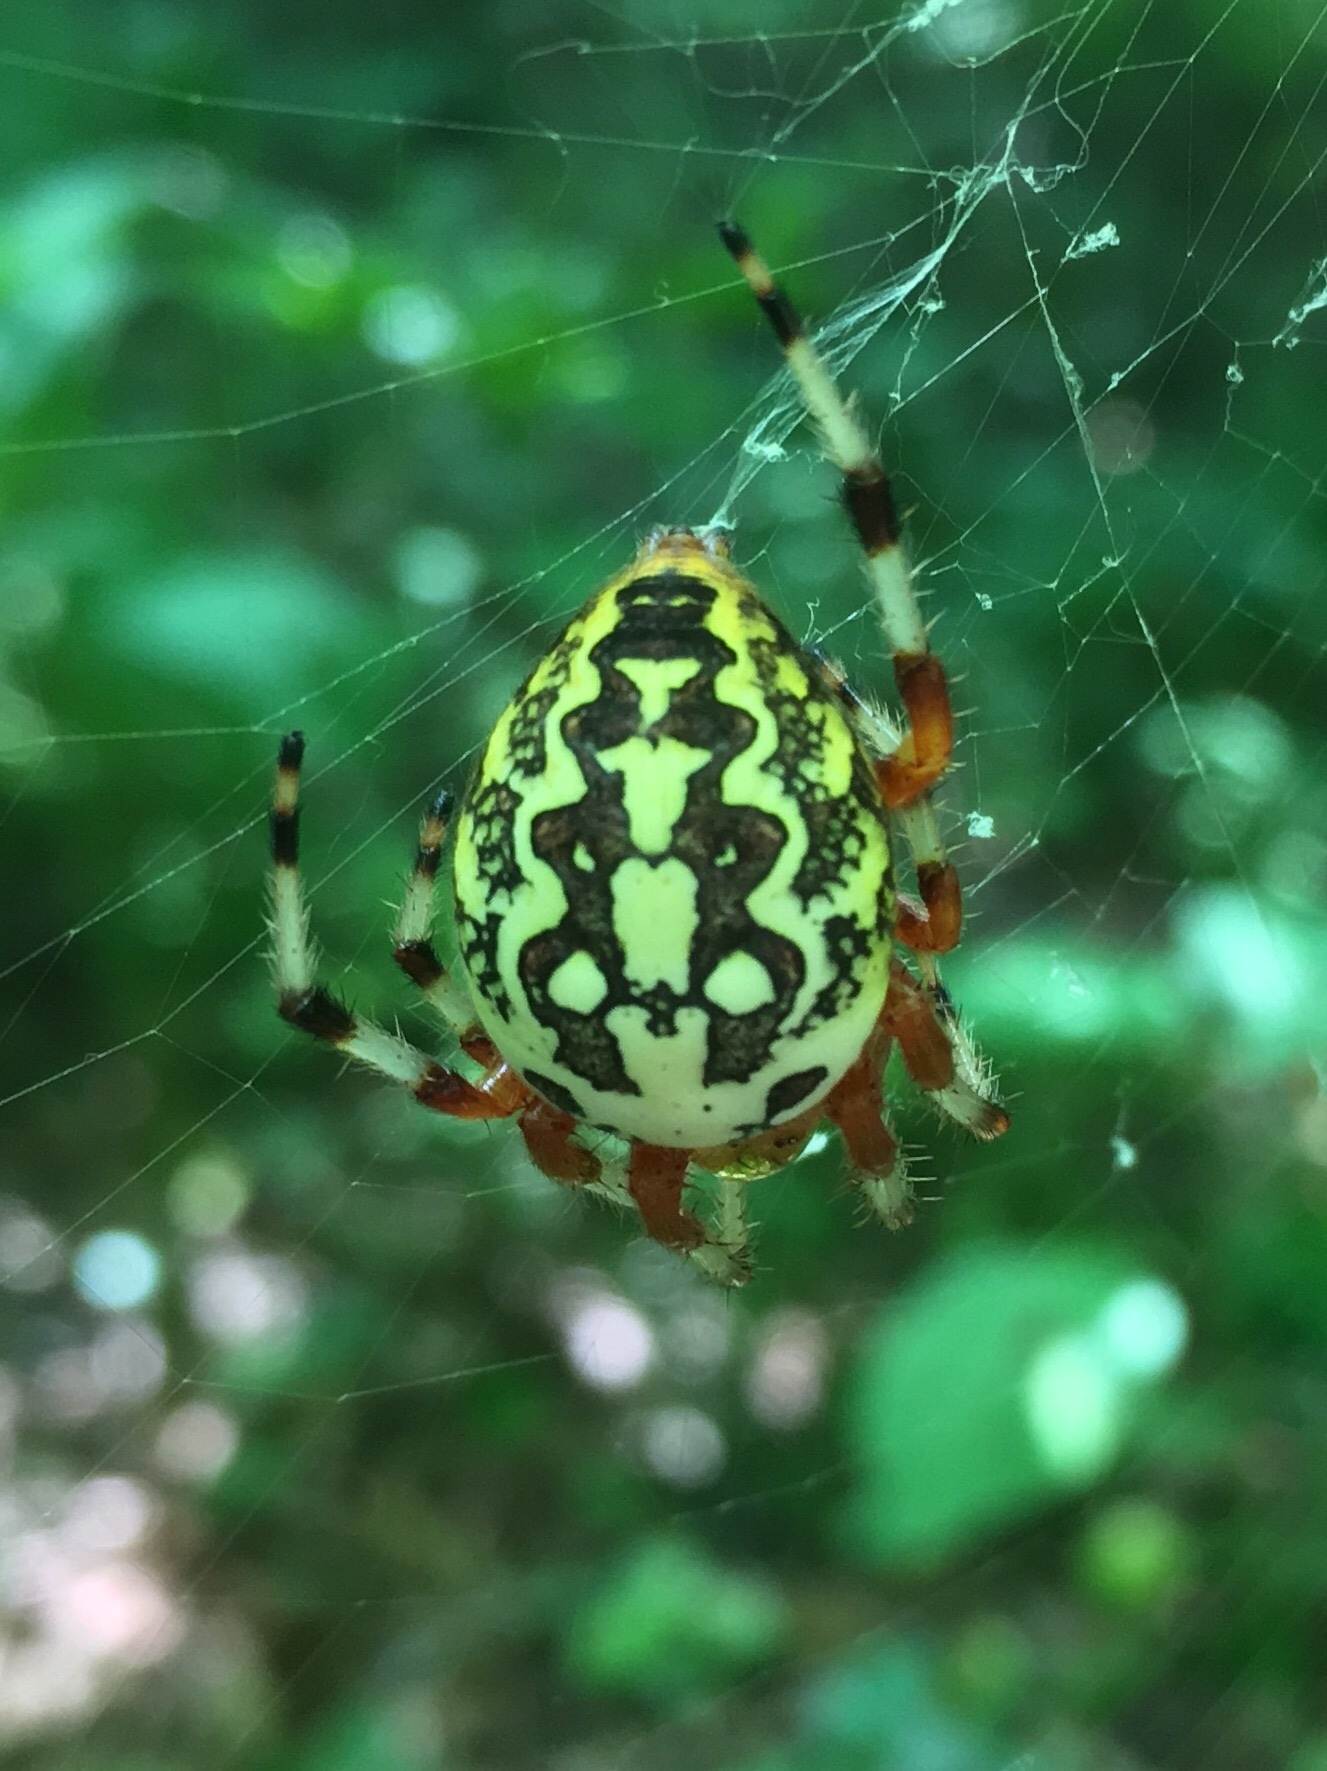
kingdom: Animalia
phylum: Arthropoda
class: Arachnida
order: Araneae
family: Araneidae
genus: Araneus
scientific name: Araneus marmoreus
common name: Marbled orbweaver
